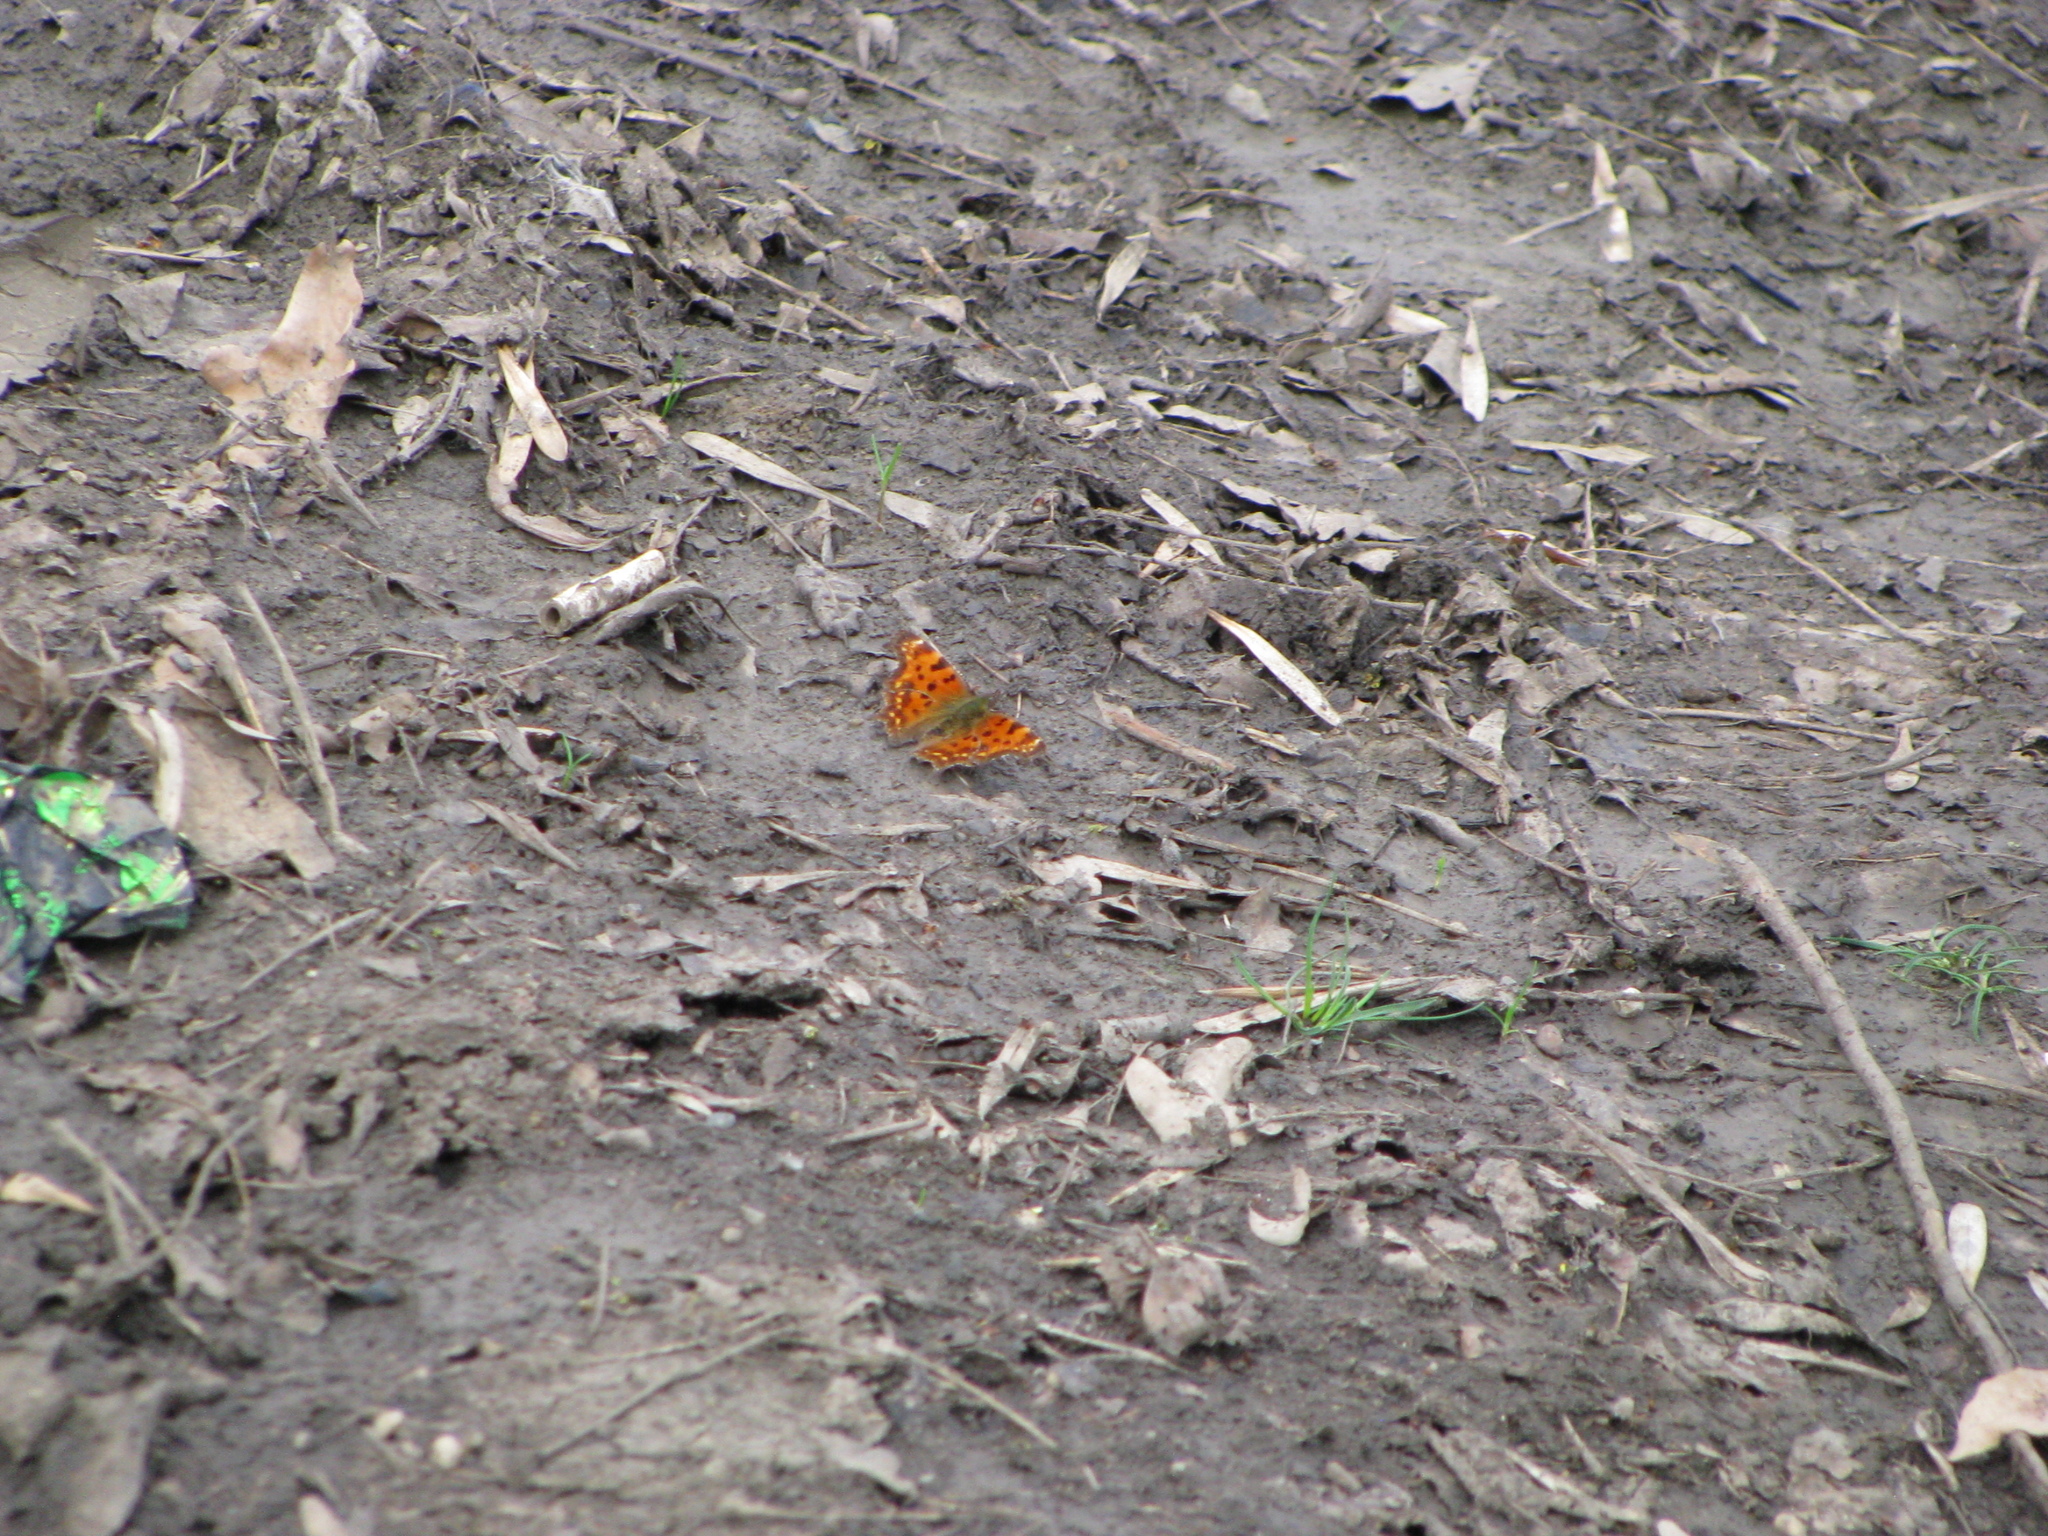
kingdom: Animalia
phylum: Arthropoda
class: Insecta
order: Lepidoptera
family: Nymphalidae
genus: Polygonia
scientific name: Polygonia c-album
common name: Comma
